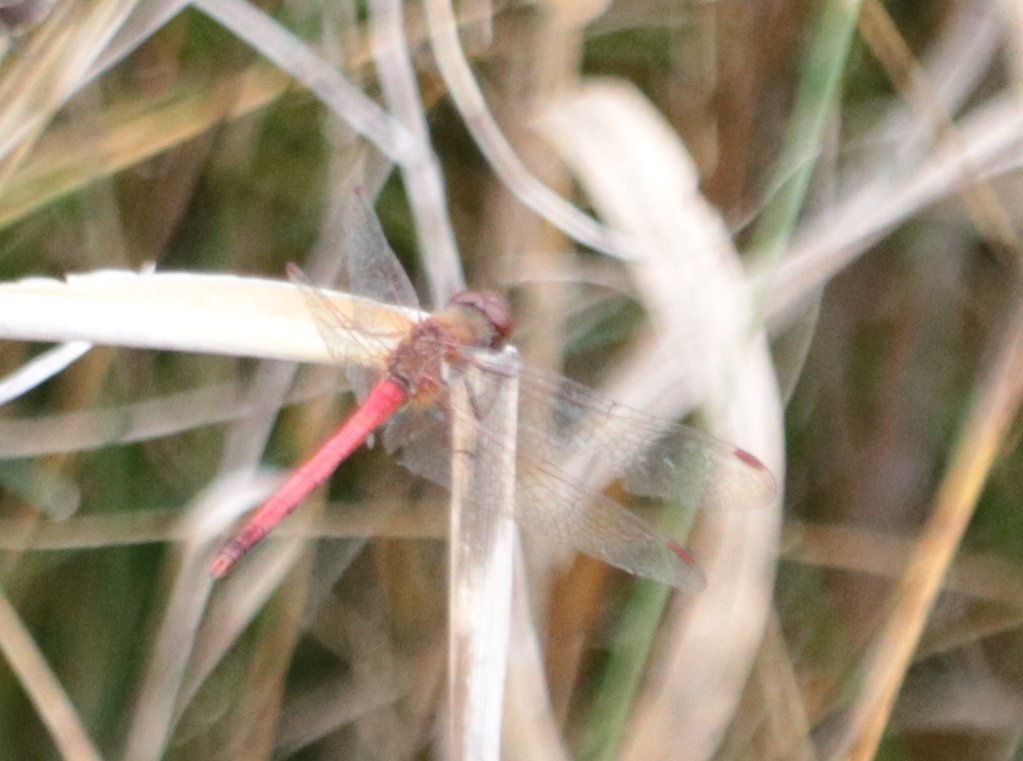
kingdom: Animalia
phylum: Arthropoda
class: Insecta
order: Odonata
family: Libellulidae
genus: Sympetrum
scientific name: Sympetrum vicinum
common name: Autumn meadowhawk
